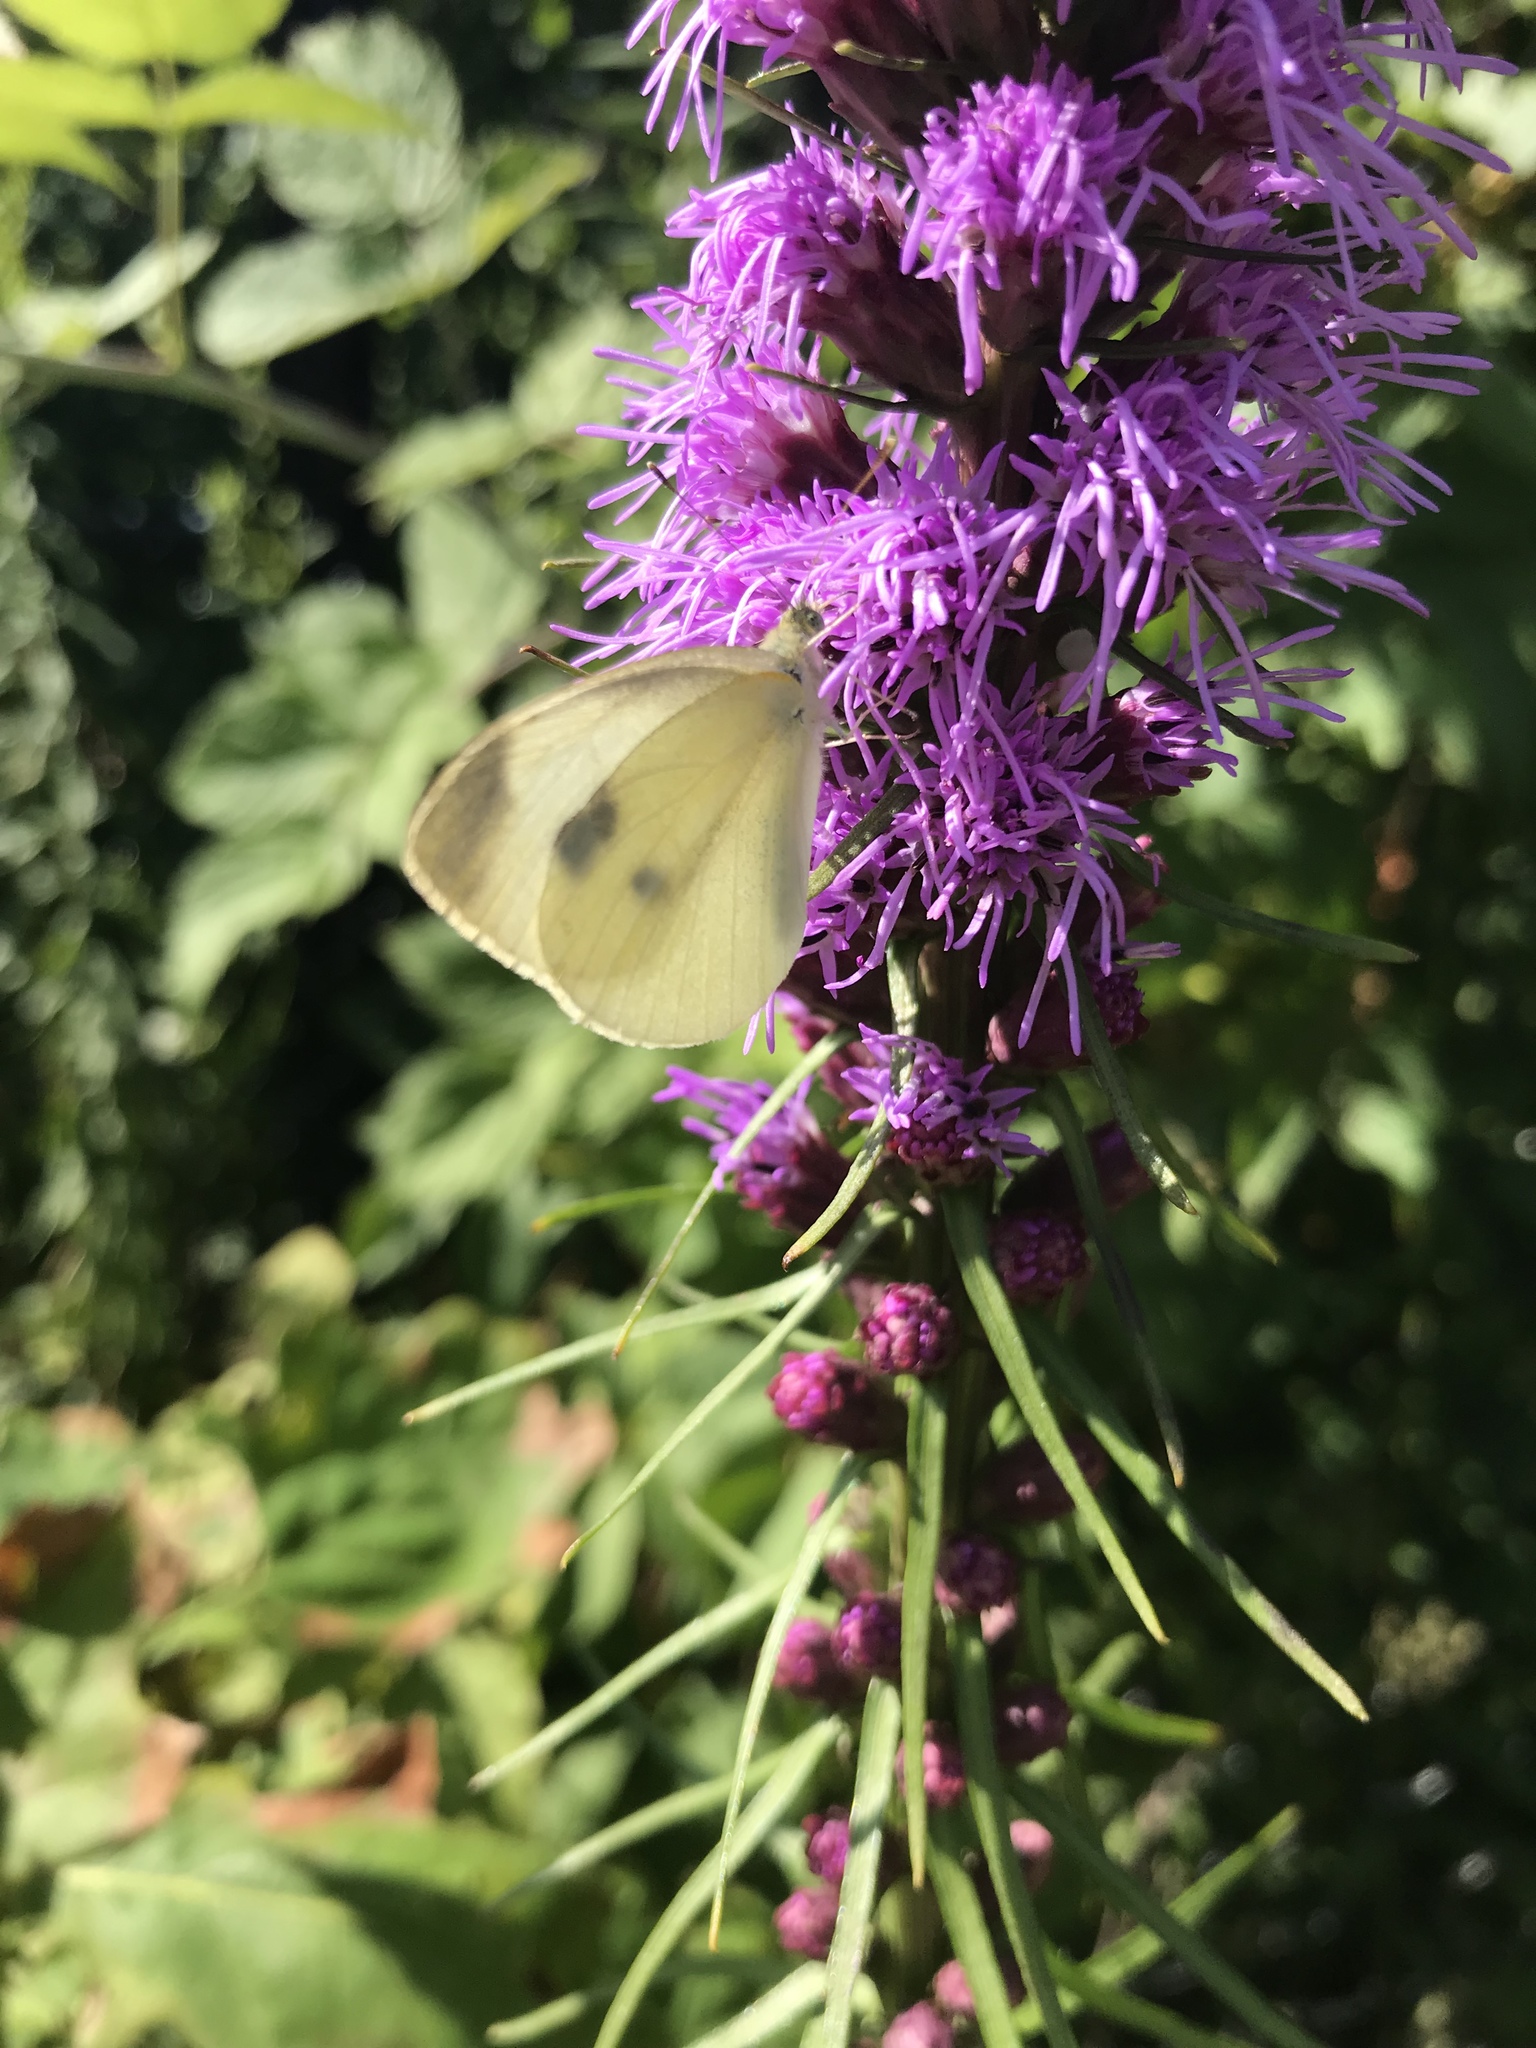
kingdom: Animalia
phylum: Arthropoda
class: Insecta
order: Lepidoptera
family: Pieridae
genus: Pieris
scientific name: Pieris rapae
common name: Small white
